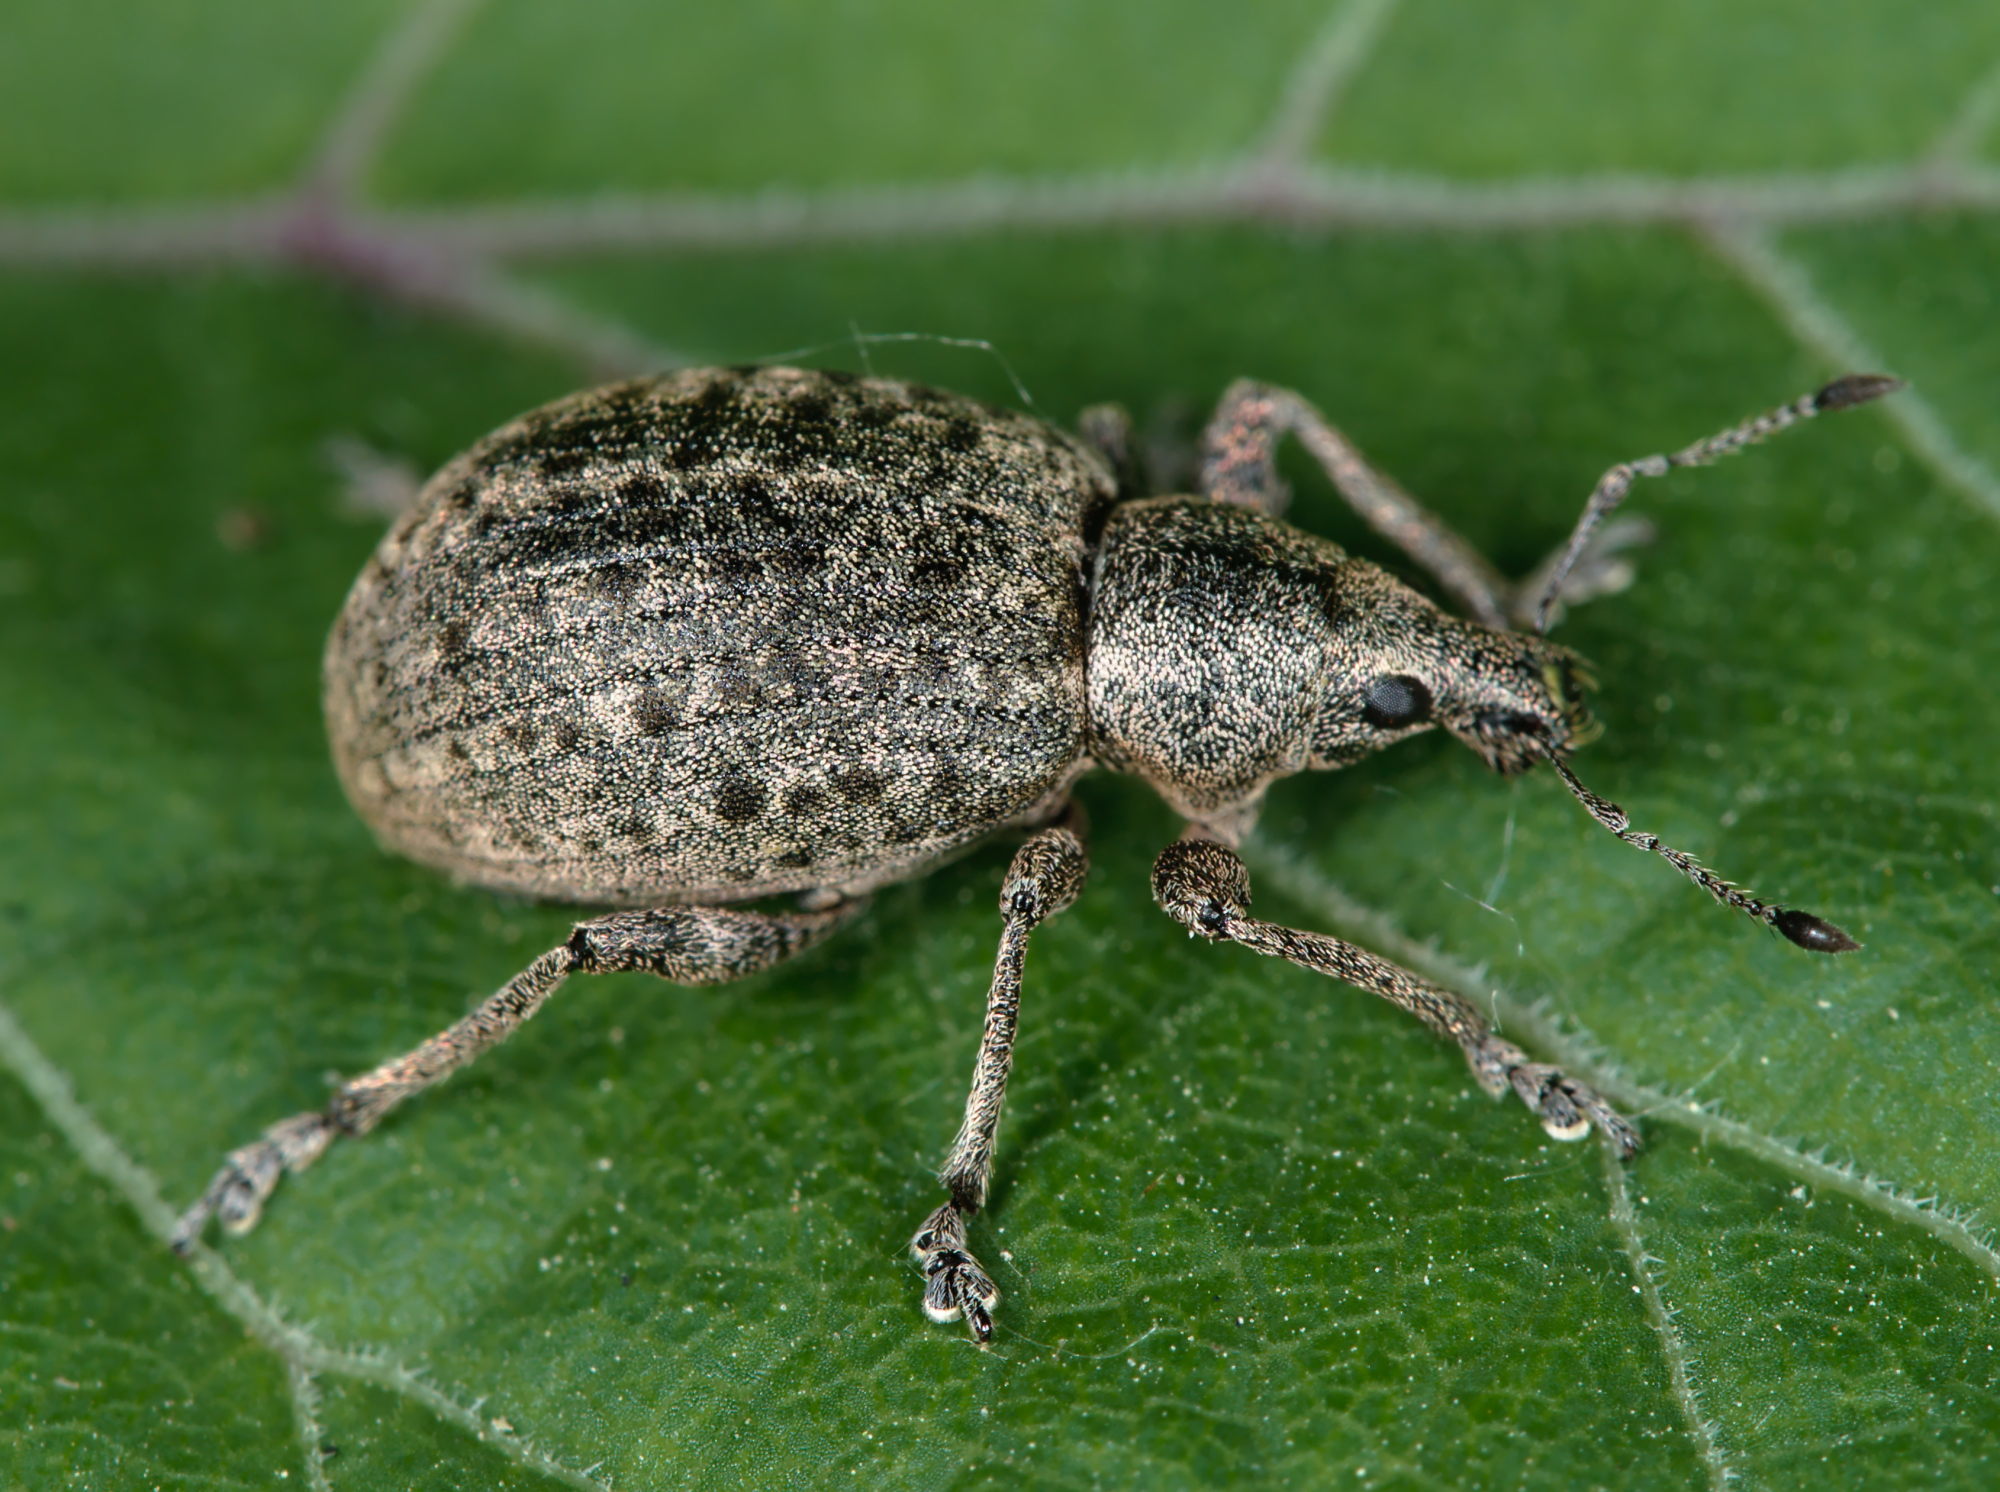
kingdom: Animalia
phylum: Arthropoda
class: Insecta
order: Coleoptera
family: Curculionidae
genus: Liophloeus
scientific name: Liophloeus tessulatus
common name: Weevil
